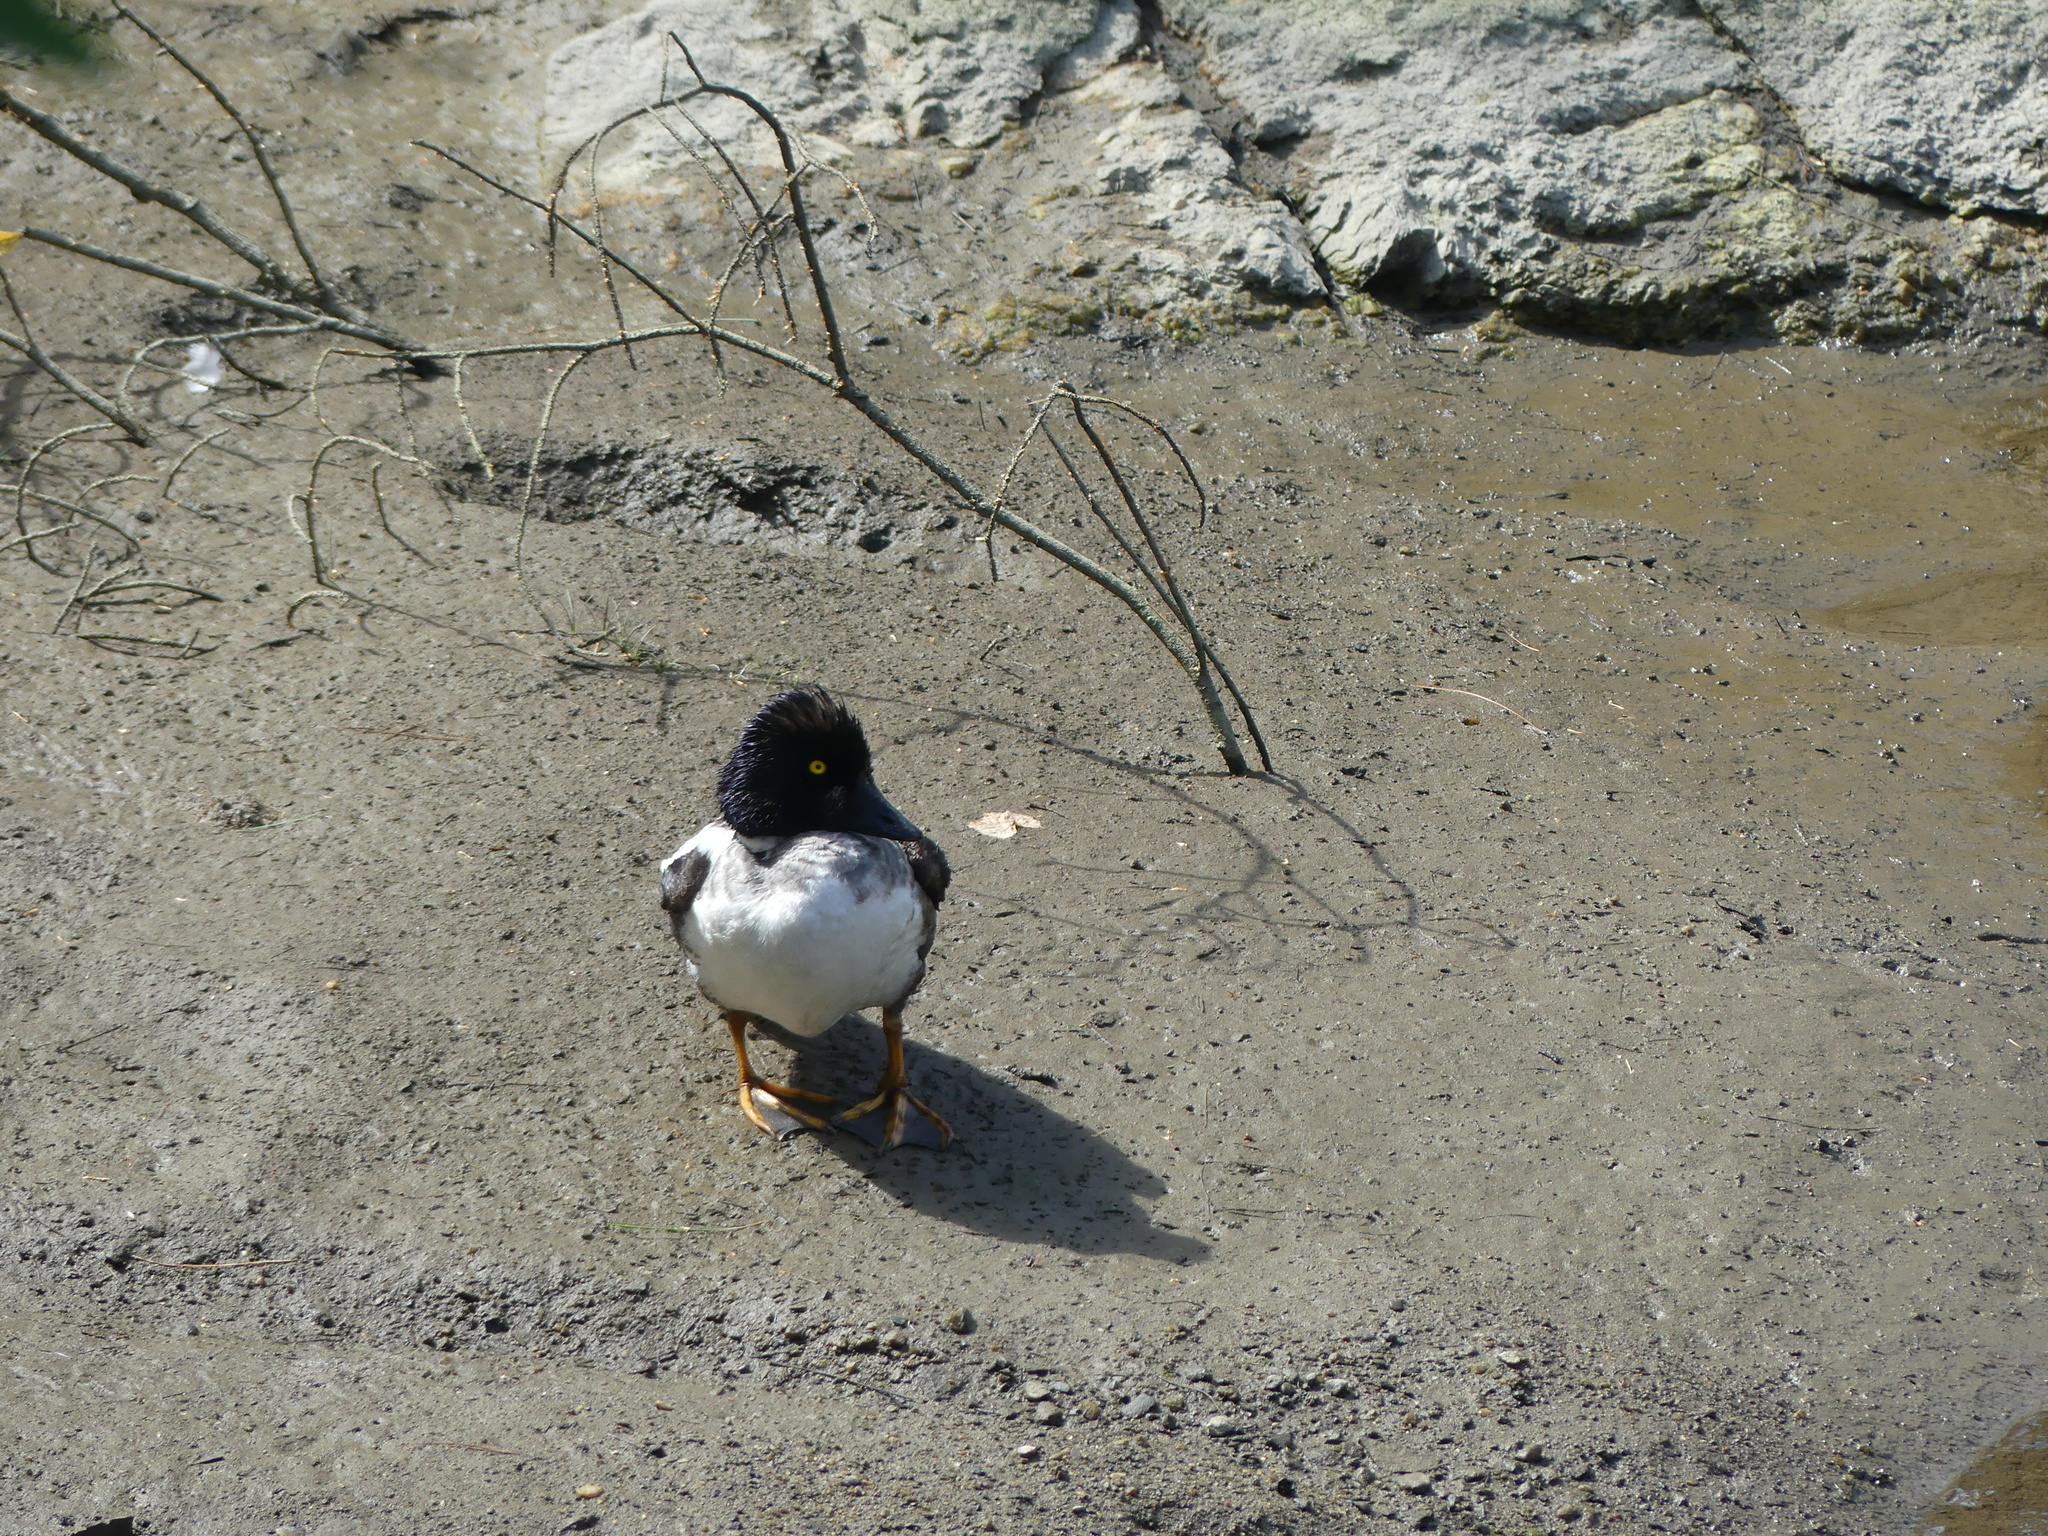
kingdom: Animalia
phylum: Chordata
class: Aves
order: Anseriformes
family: Anatidae
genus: Bucephala
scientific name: Bucephala clangula
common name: Common goldeneye
